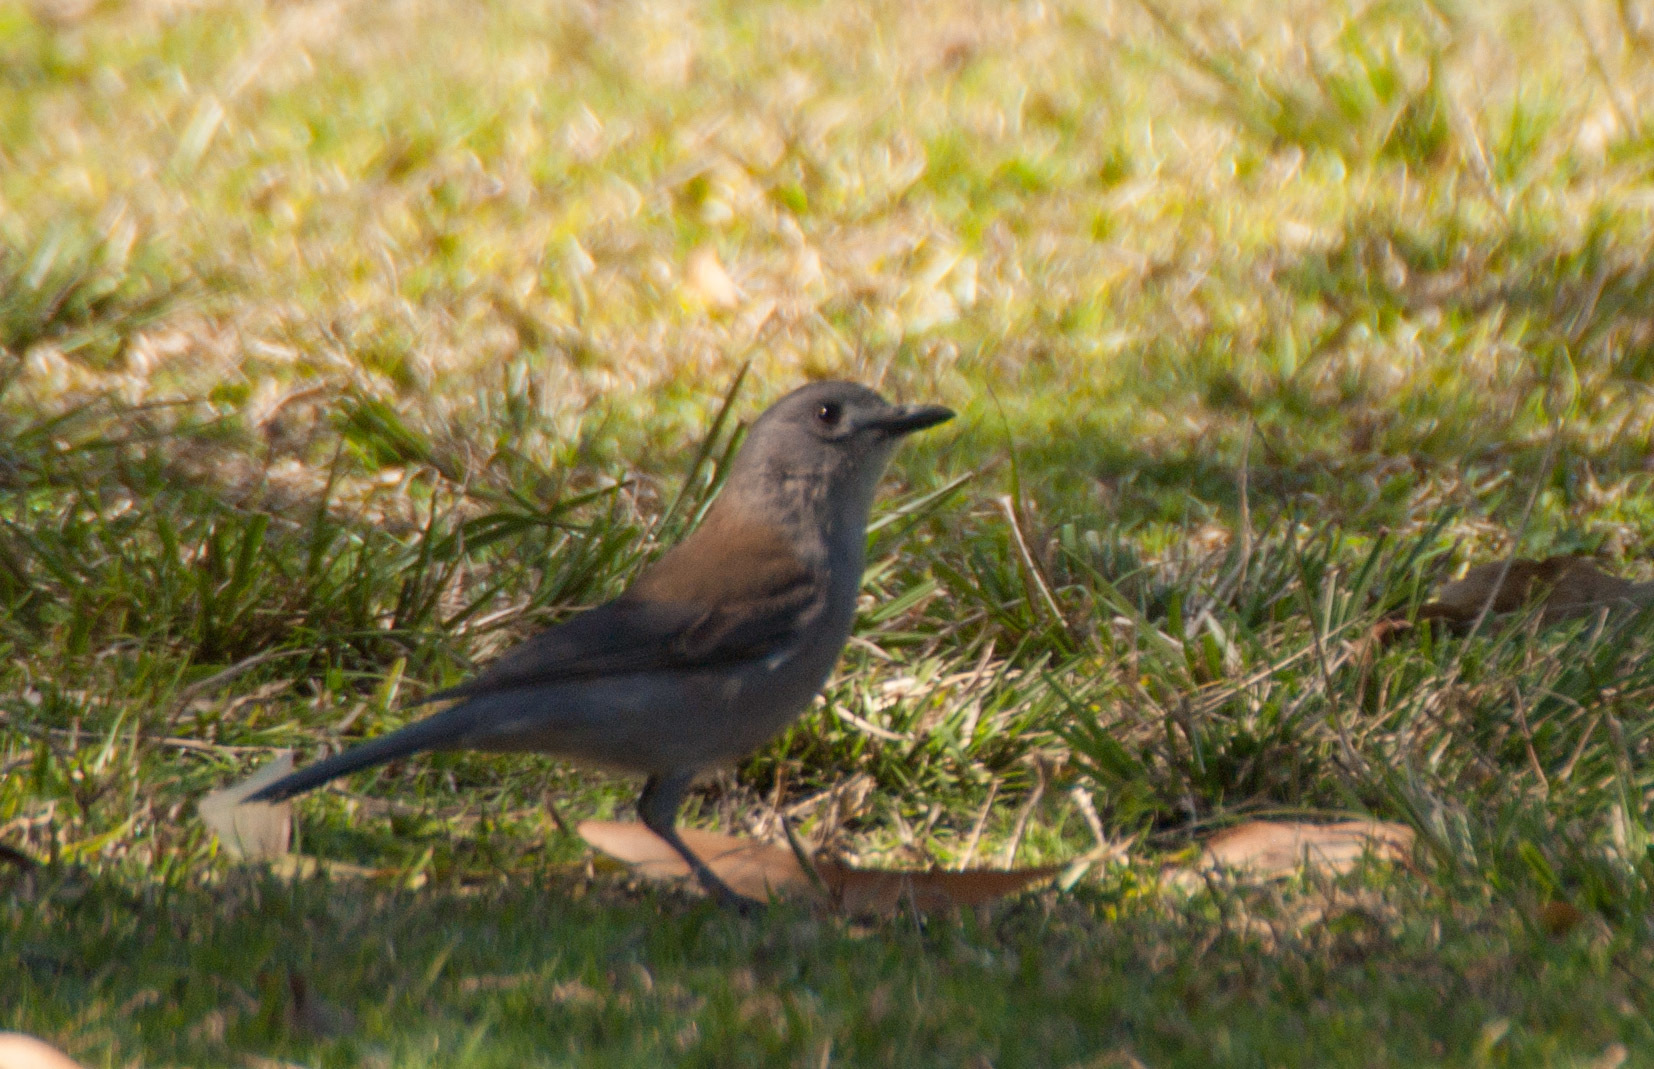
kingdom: Animalia
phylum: Chordata
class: Aves
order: Passeriformes
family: Pachycephalidae
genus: Colluricincla
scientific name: Colluricincla harmonica
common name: Grey shrikethrush
